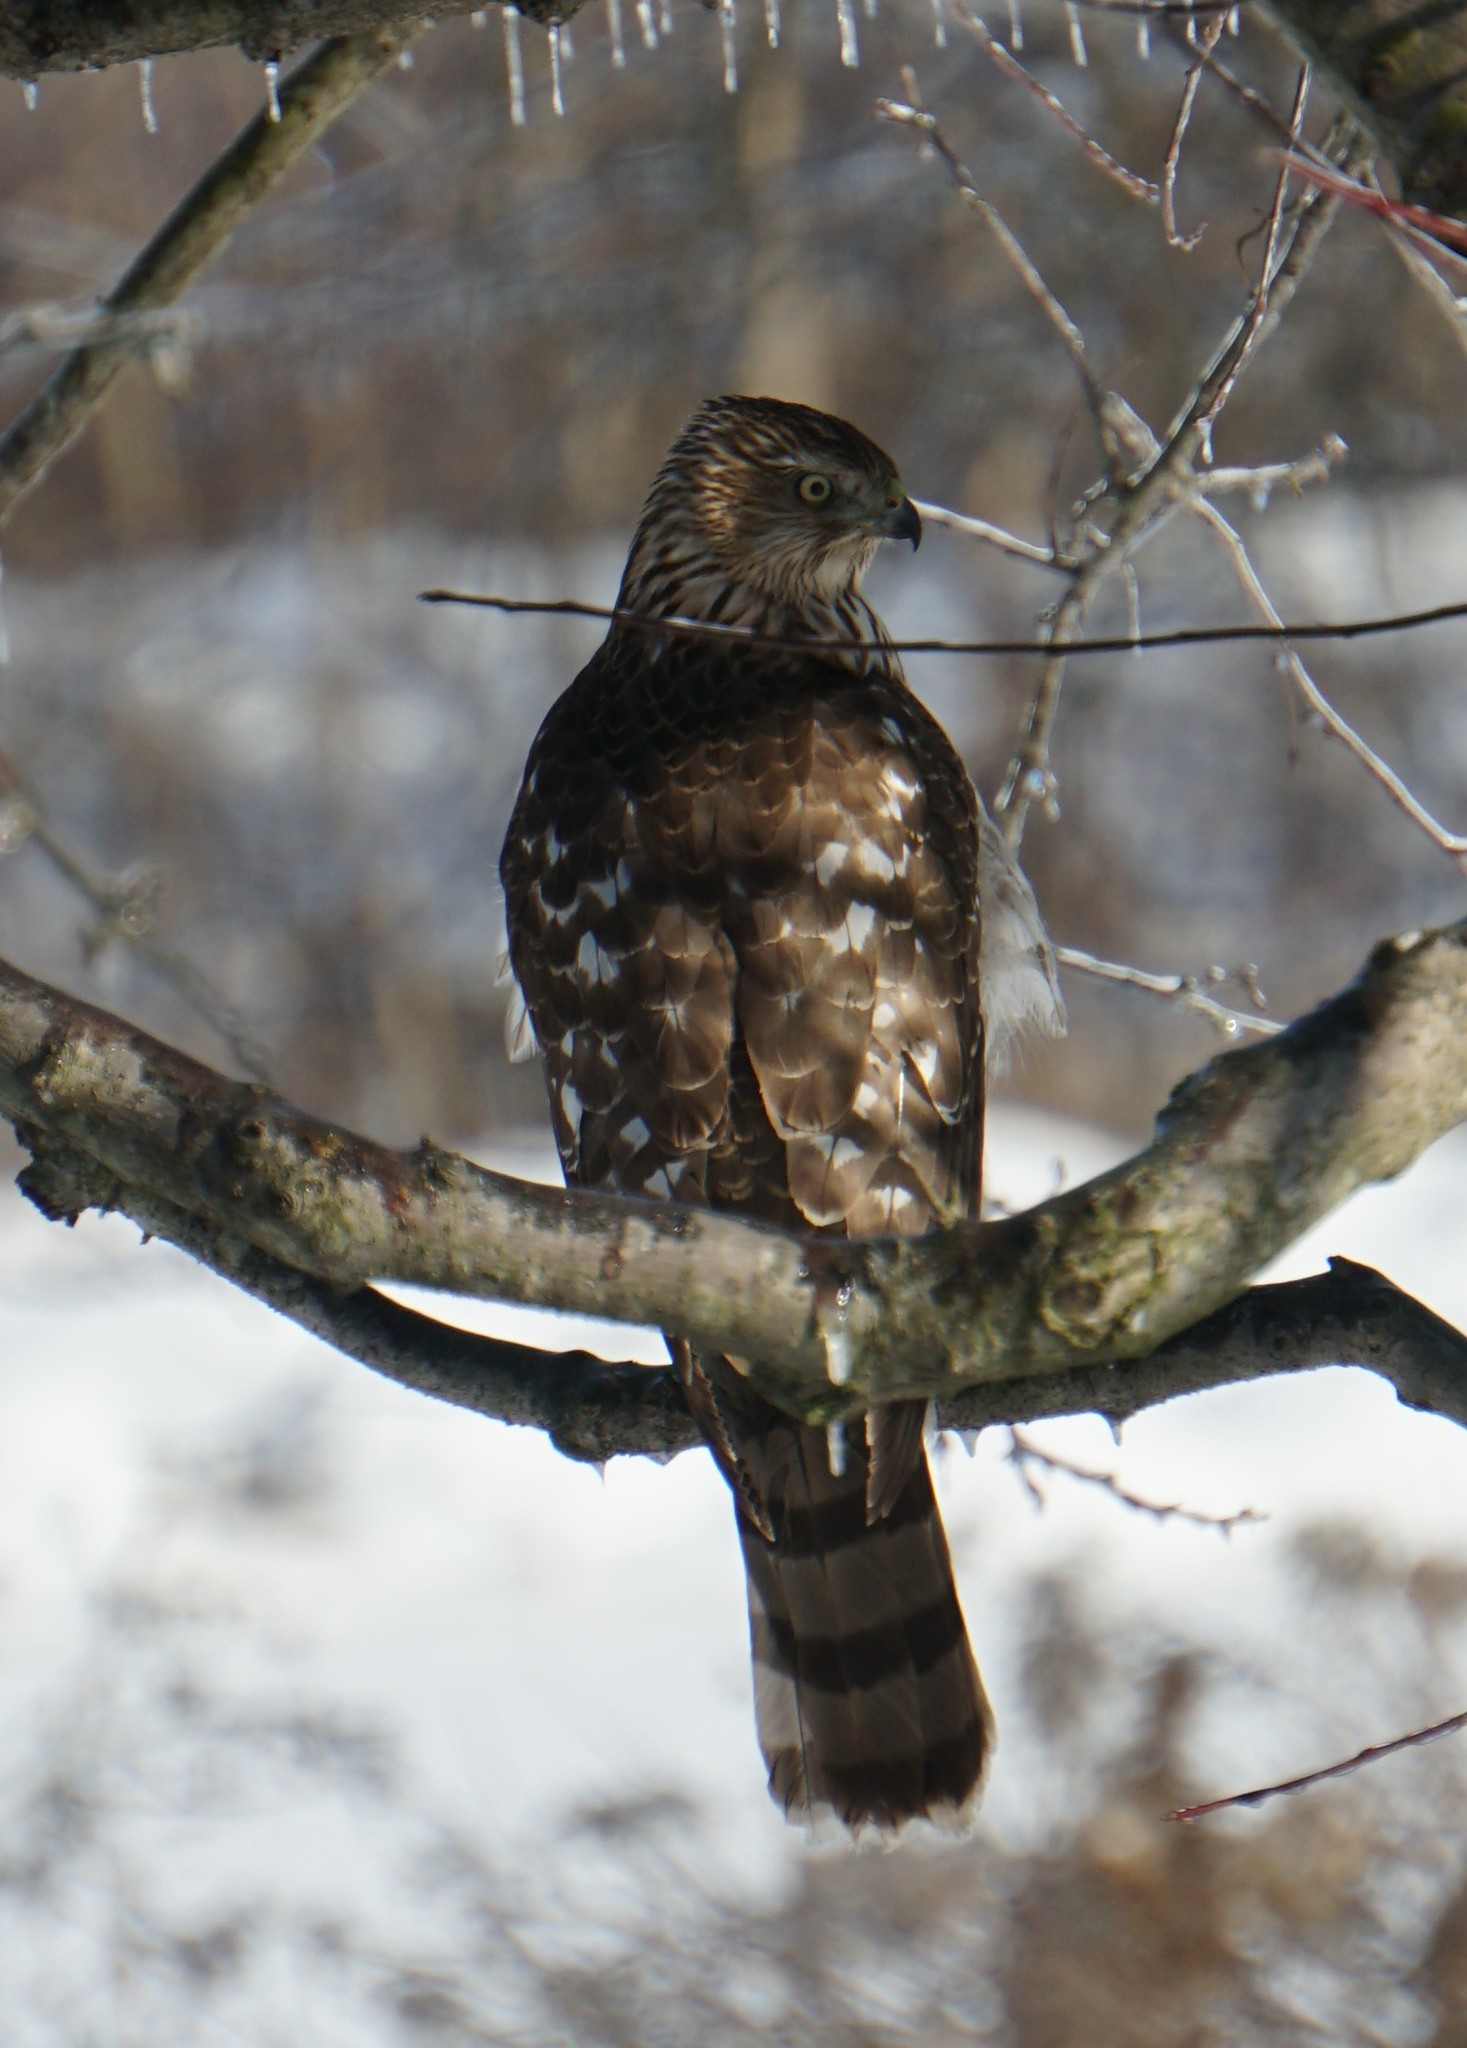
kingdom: Animalia
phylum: Chordata
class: Aves
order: Accipitriformes
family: Accipitridae
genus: Accipiter
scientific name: Accipiter cooperii
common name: Cooper's hawk
